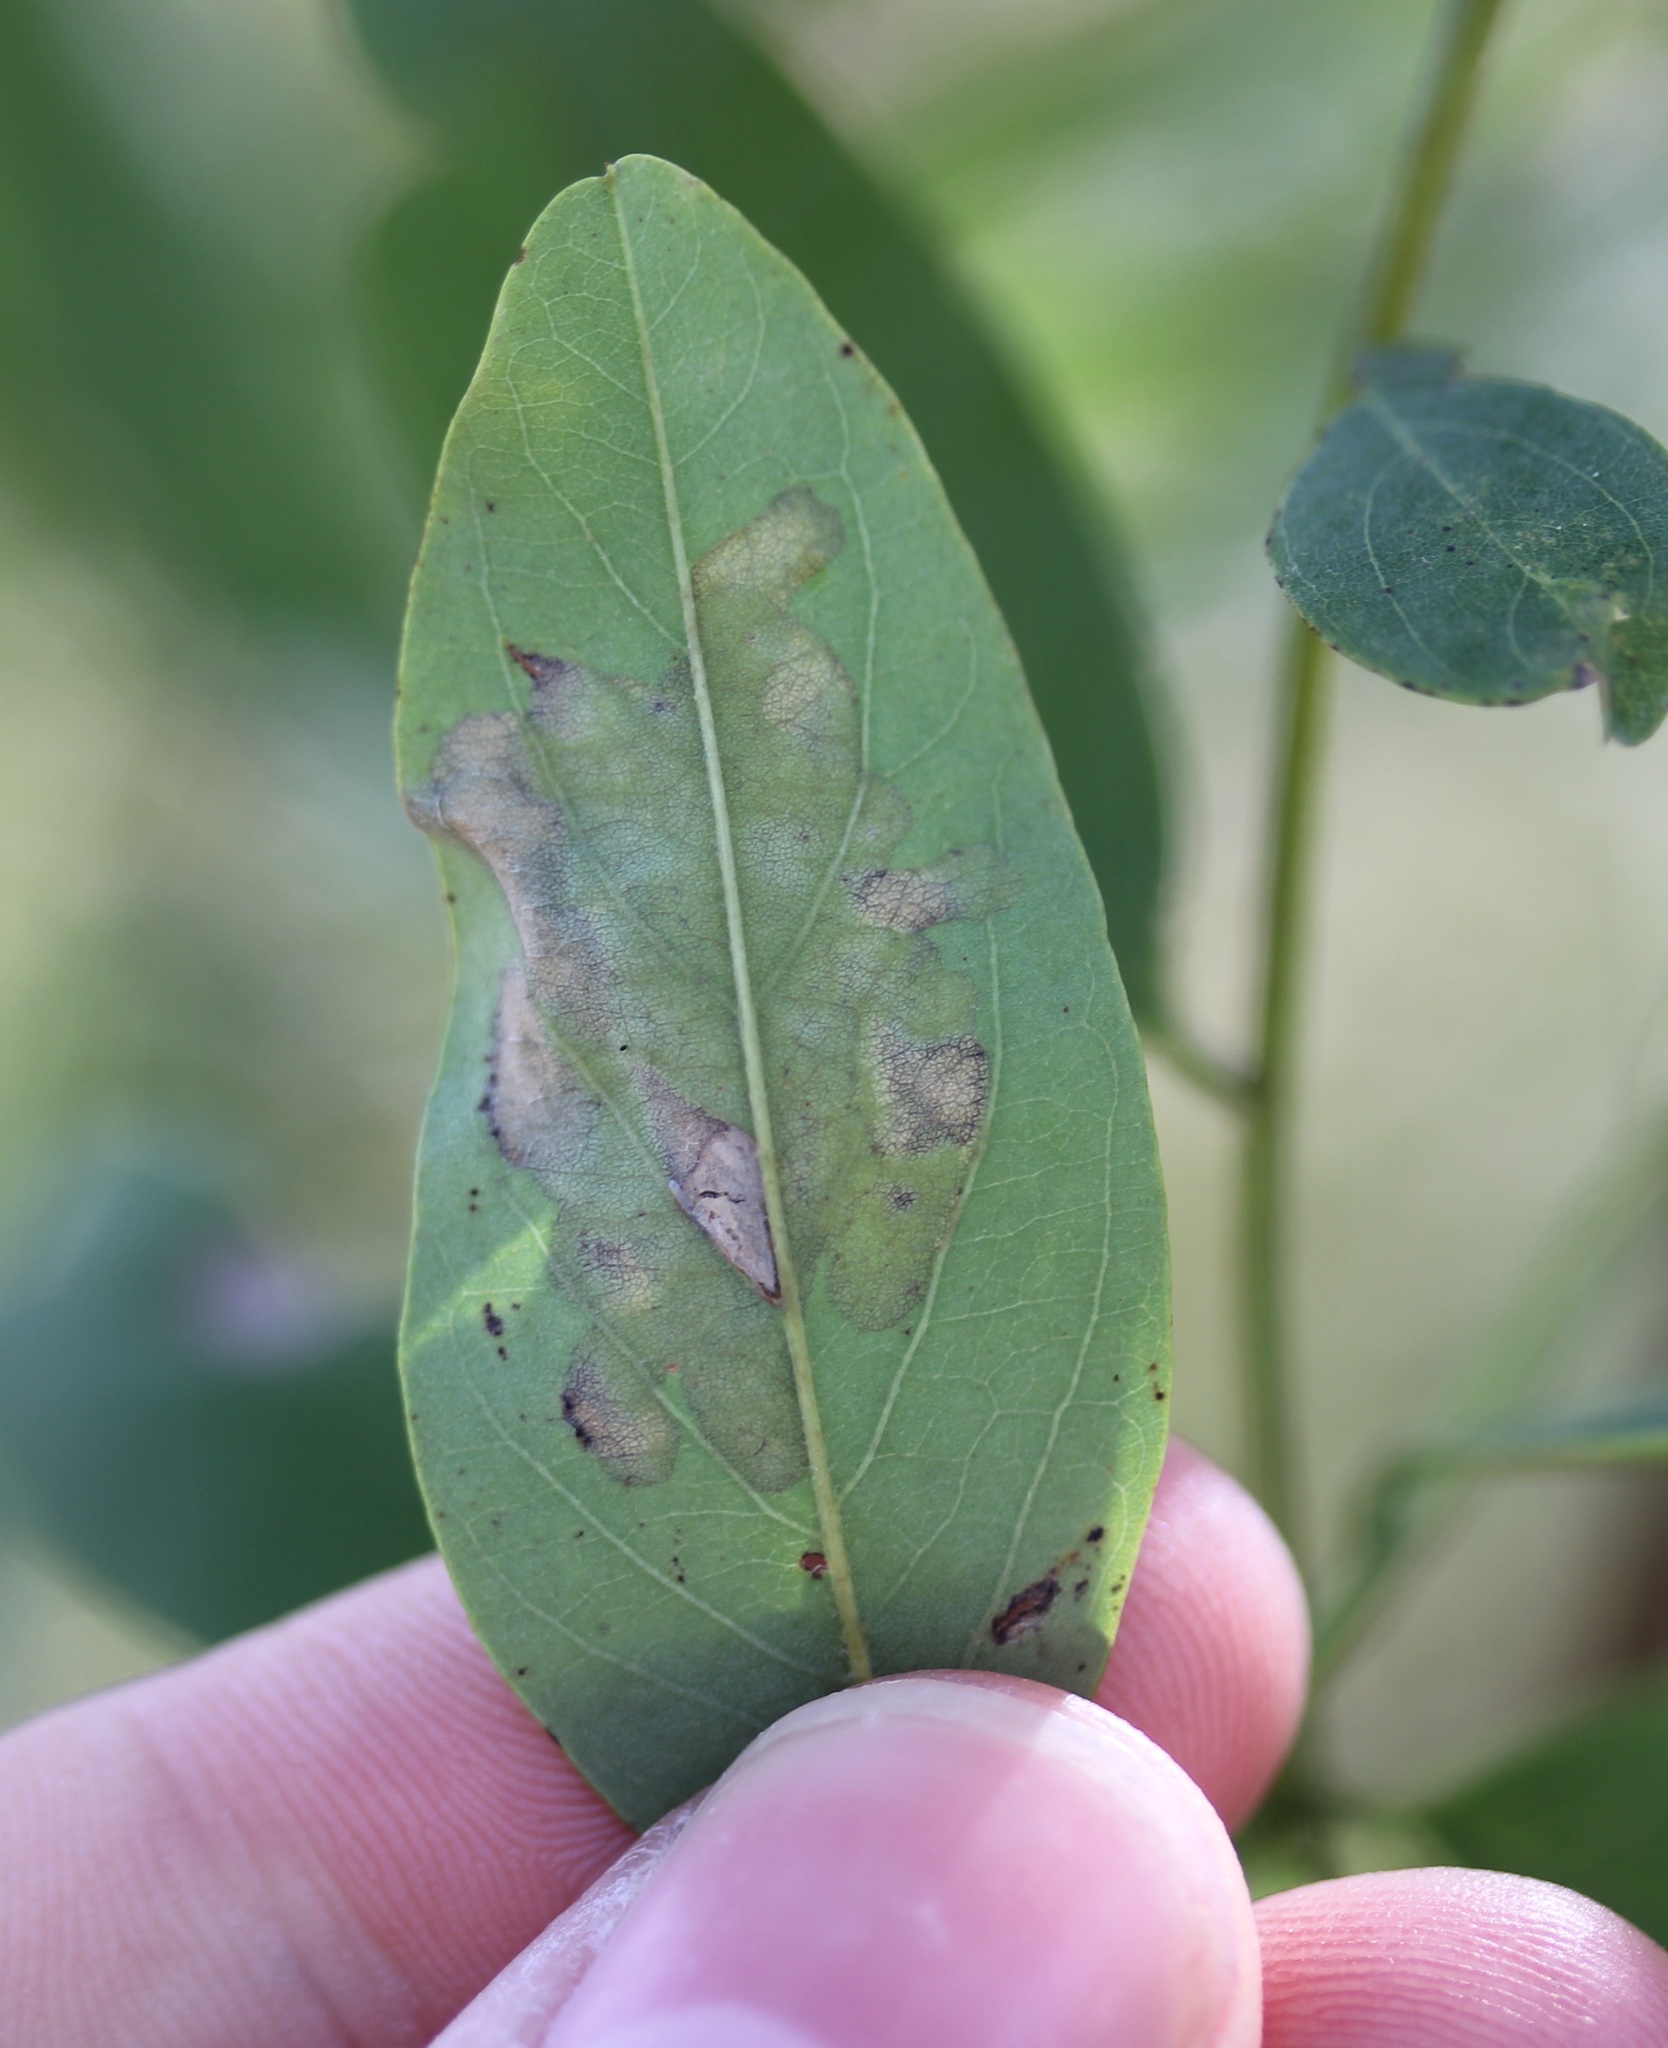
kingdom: Animalia
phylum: Arthropoda
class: Insecta
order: Lepidoptera
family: Gracillariidae
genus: Parectopa
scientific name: Parectopa robiniella
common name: Locust digitate leafminer
